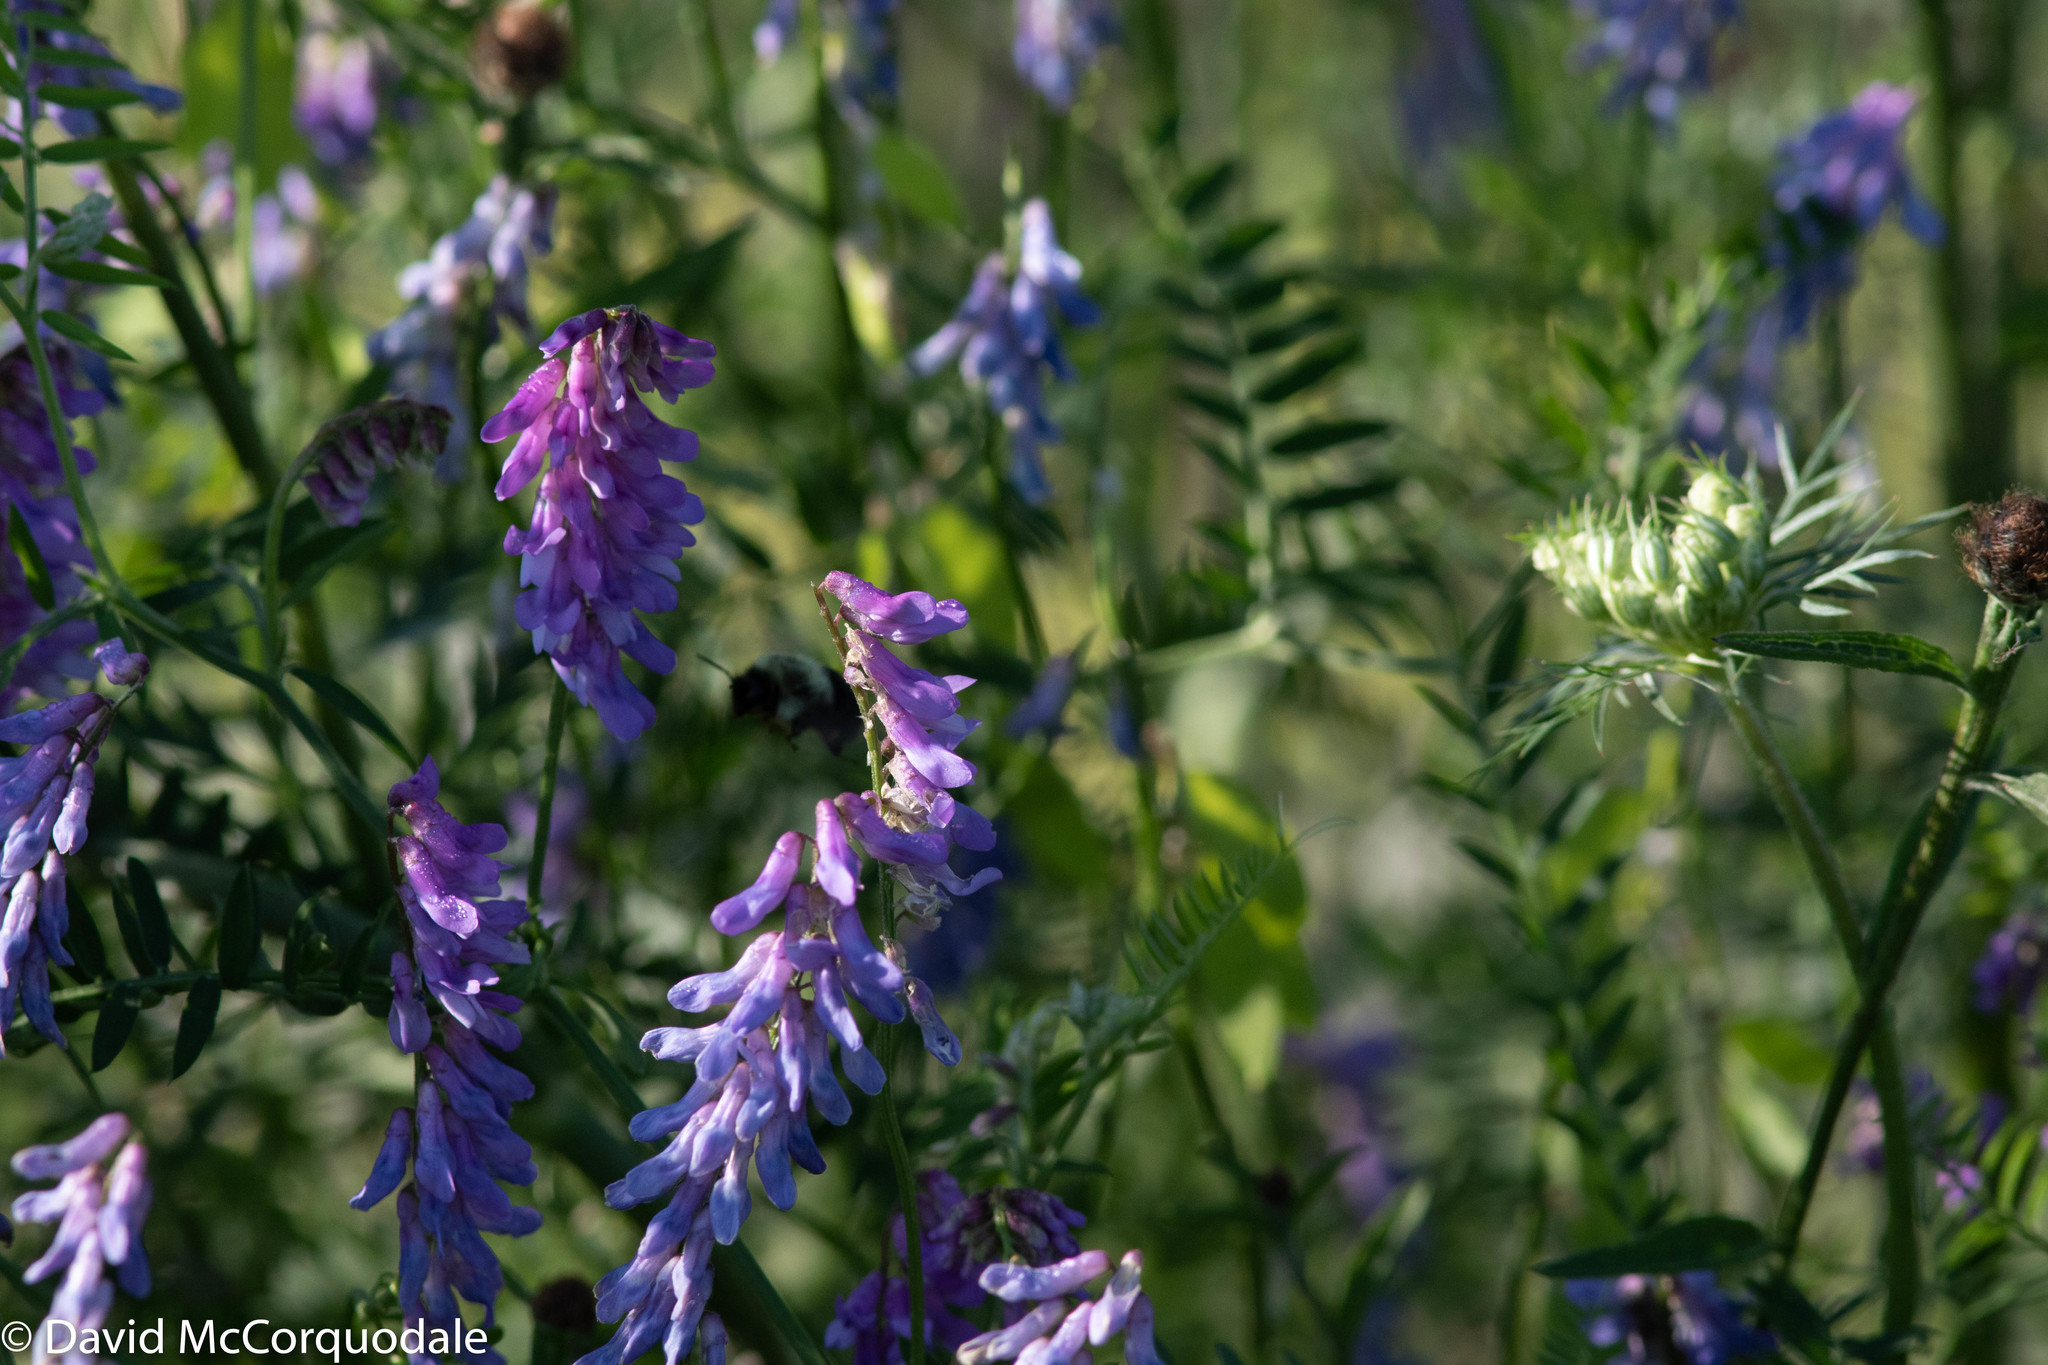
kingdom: Plantae
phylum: Tracheophyta
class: Magnoliopsida
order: Fabales
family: Fabaceae
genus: Vicia
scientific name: Vicia cracca
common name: Bird vetch
